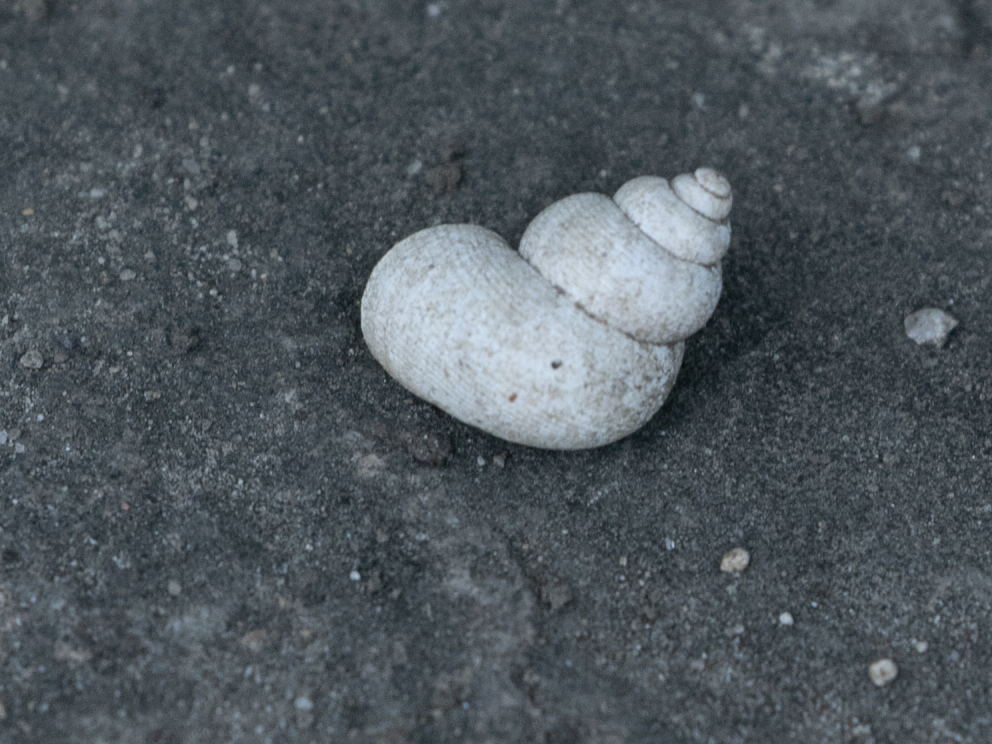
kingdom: Animalia
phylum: Mollusca
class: Gastropoda
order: Littorinimorpha
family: Pomatiidae
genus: Pomatias
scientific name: Pomatias elegans
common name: Red-mouthed snail
